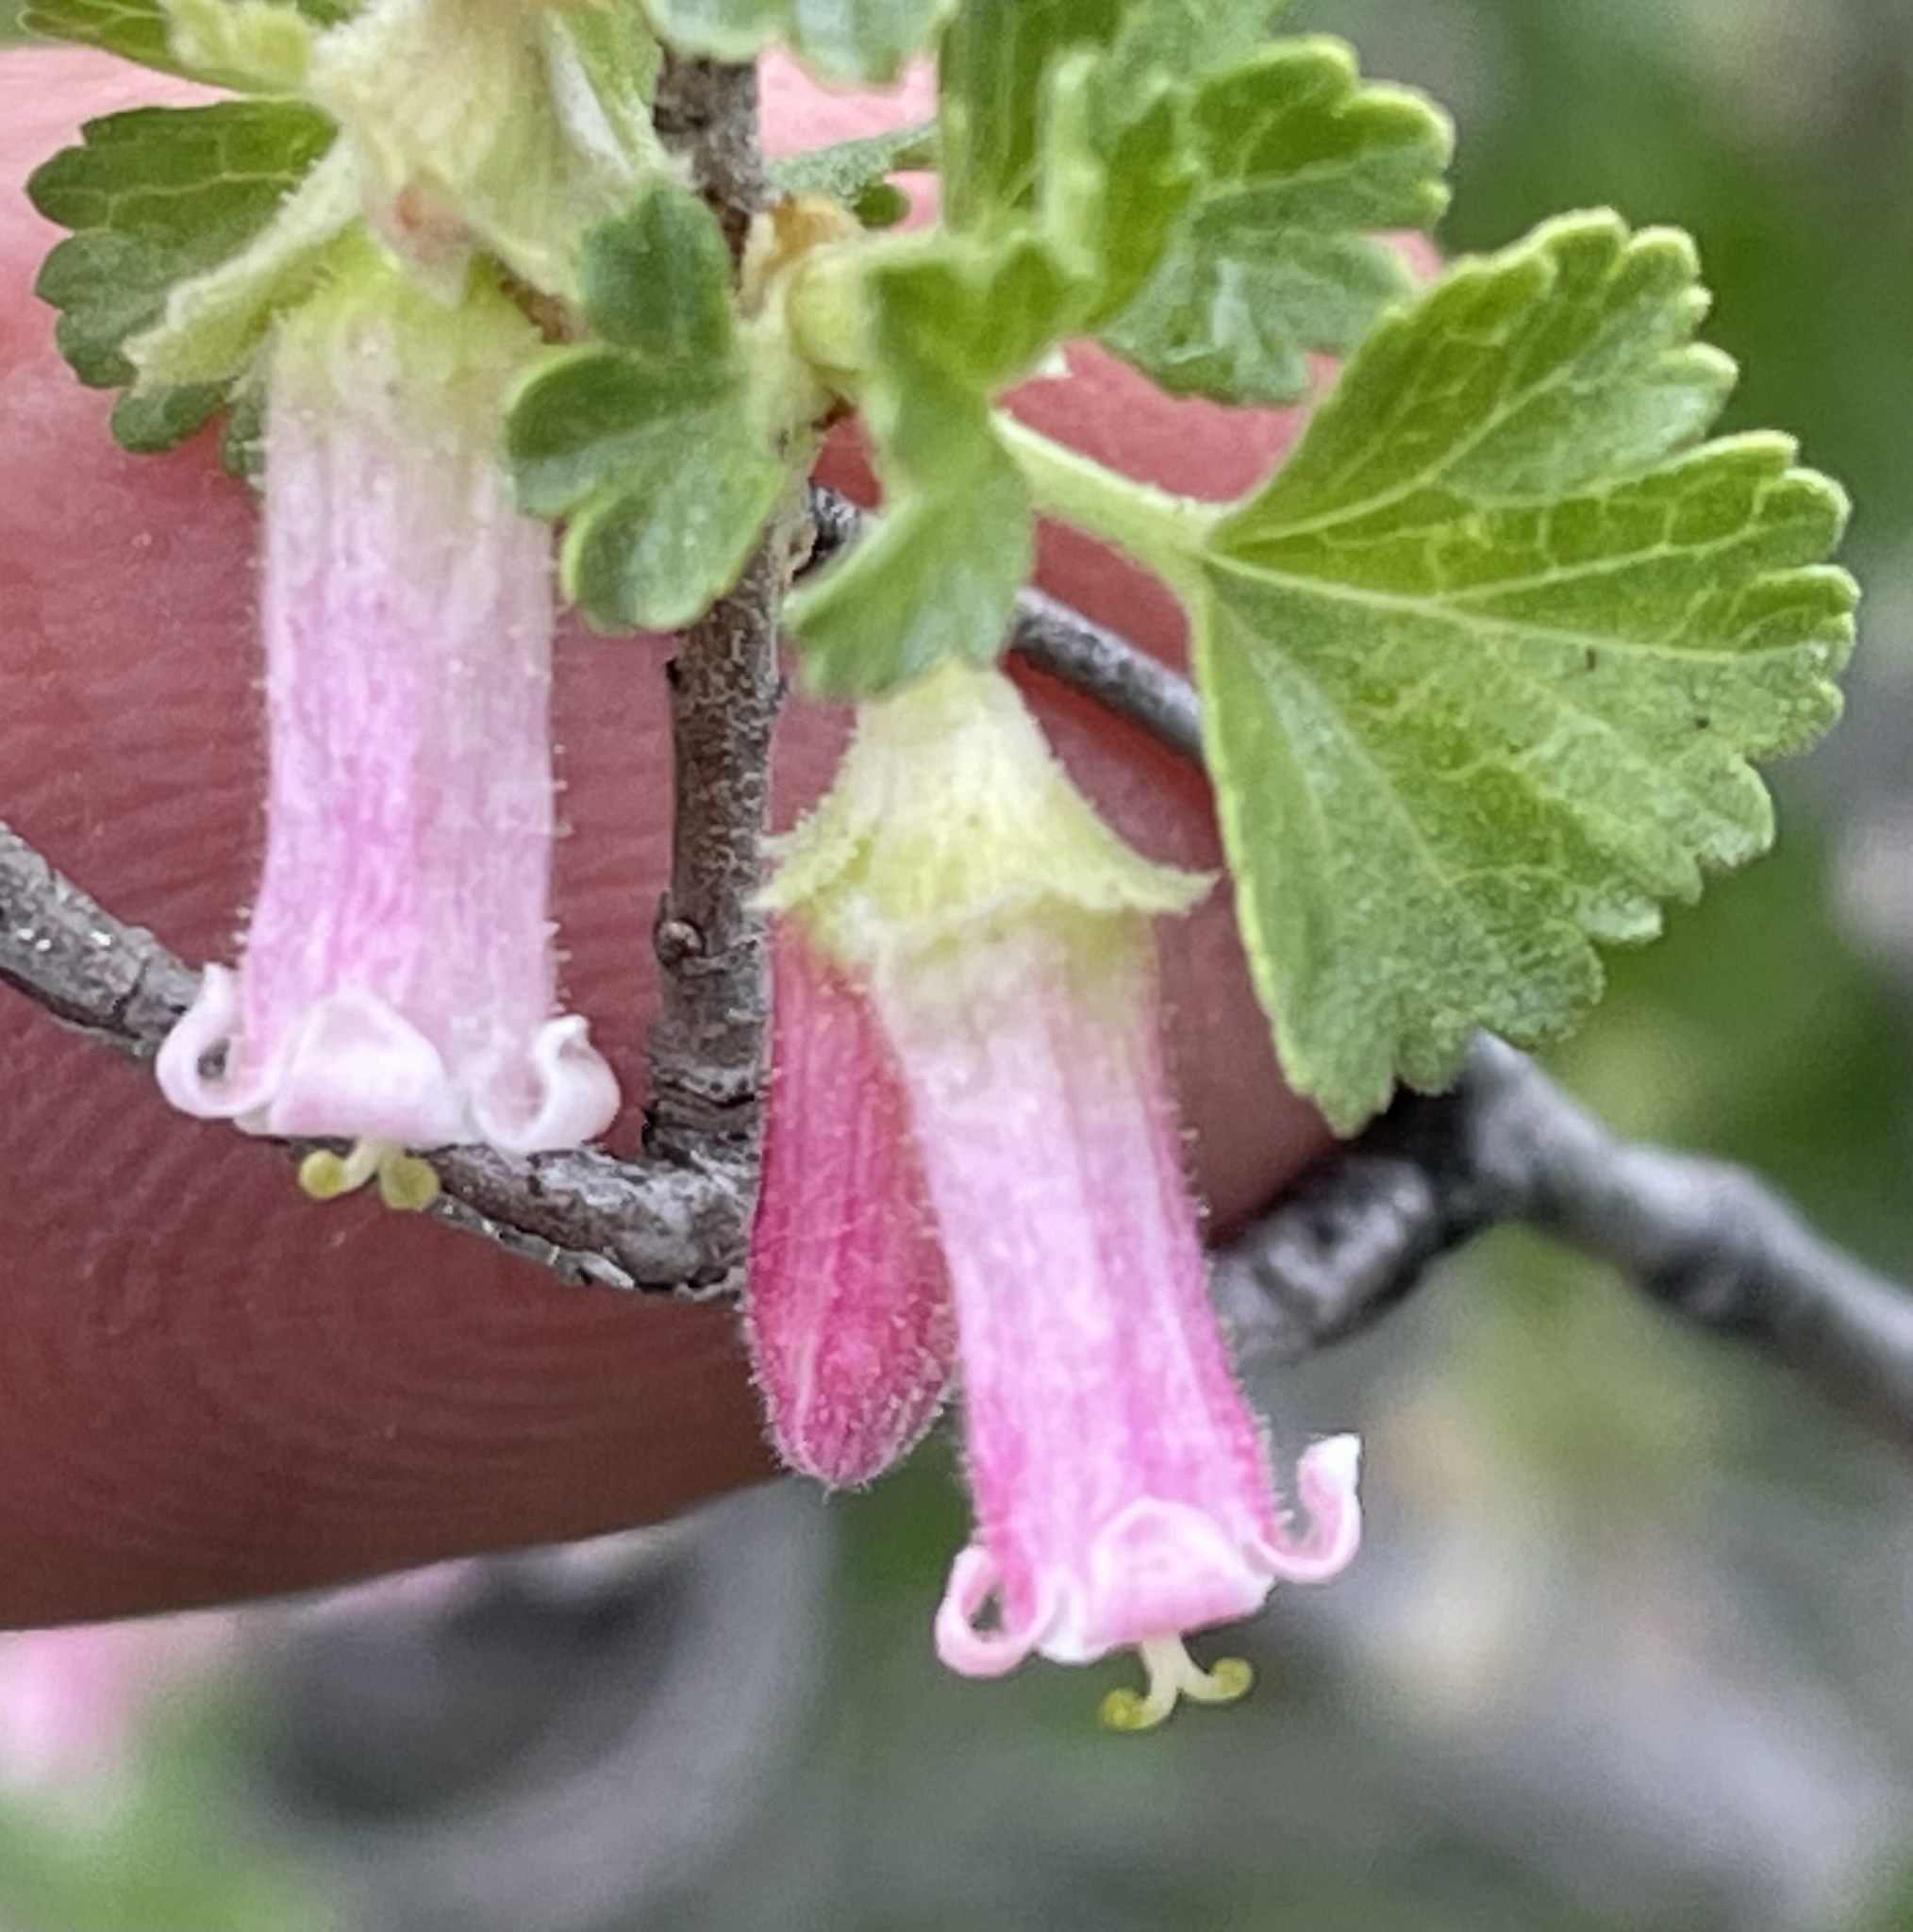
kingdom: Plantae
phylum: Tracheophyta
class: Magnoliopsida
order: Saxifragales
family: Grossulariaceae
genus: Ribes
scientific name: Ribes cereum
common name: Wax currant
